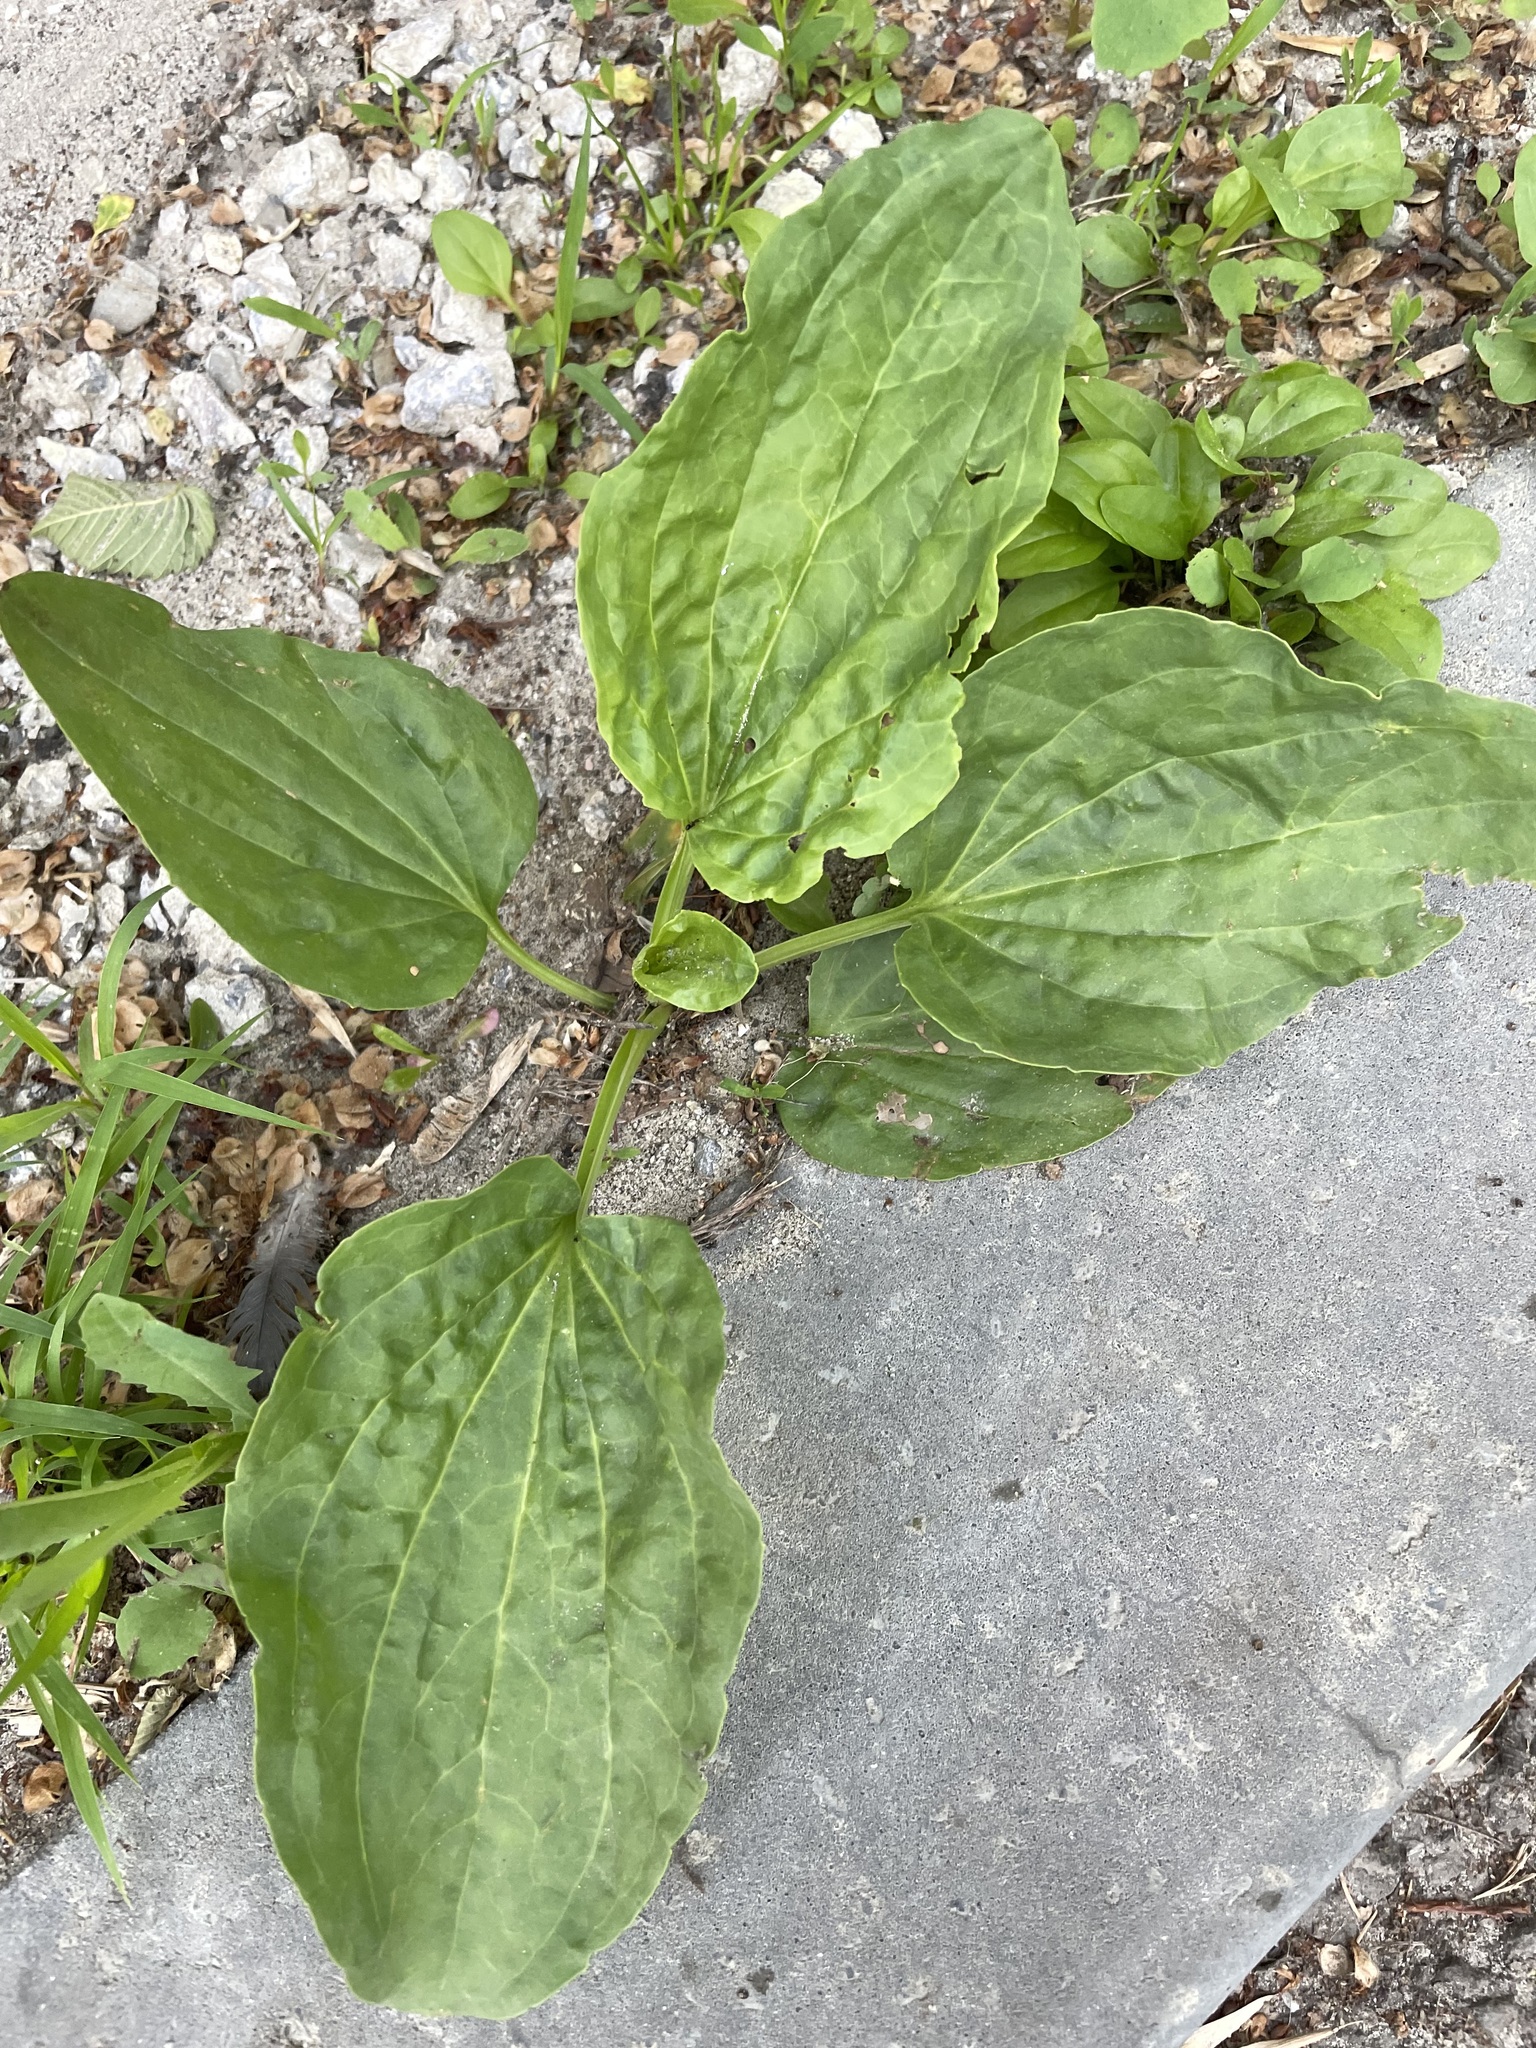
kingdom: Plantae
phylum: Tracheophyta
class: Magnoliopsida
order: Lamiales
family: Plantaginaceae
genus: Plantago
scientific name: Plantago major
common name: Common plantain
